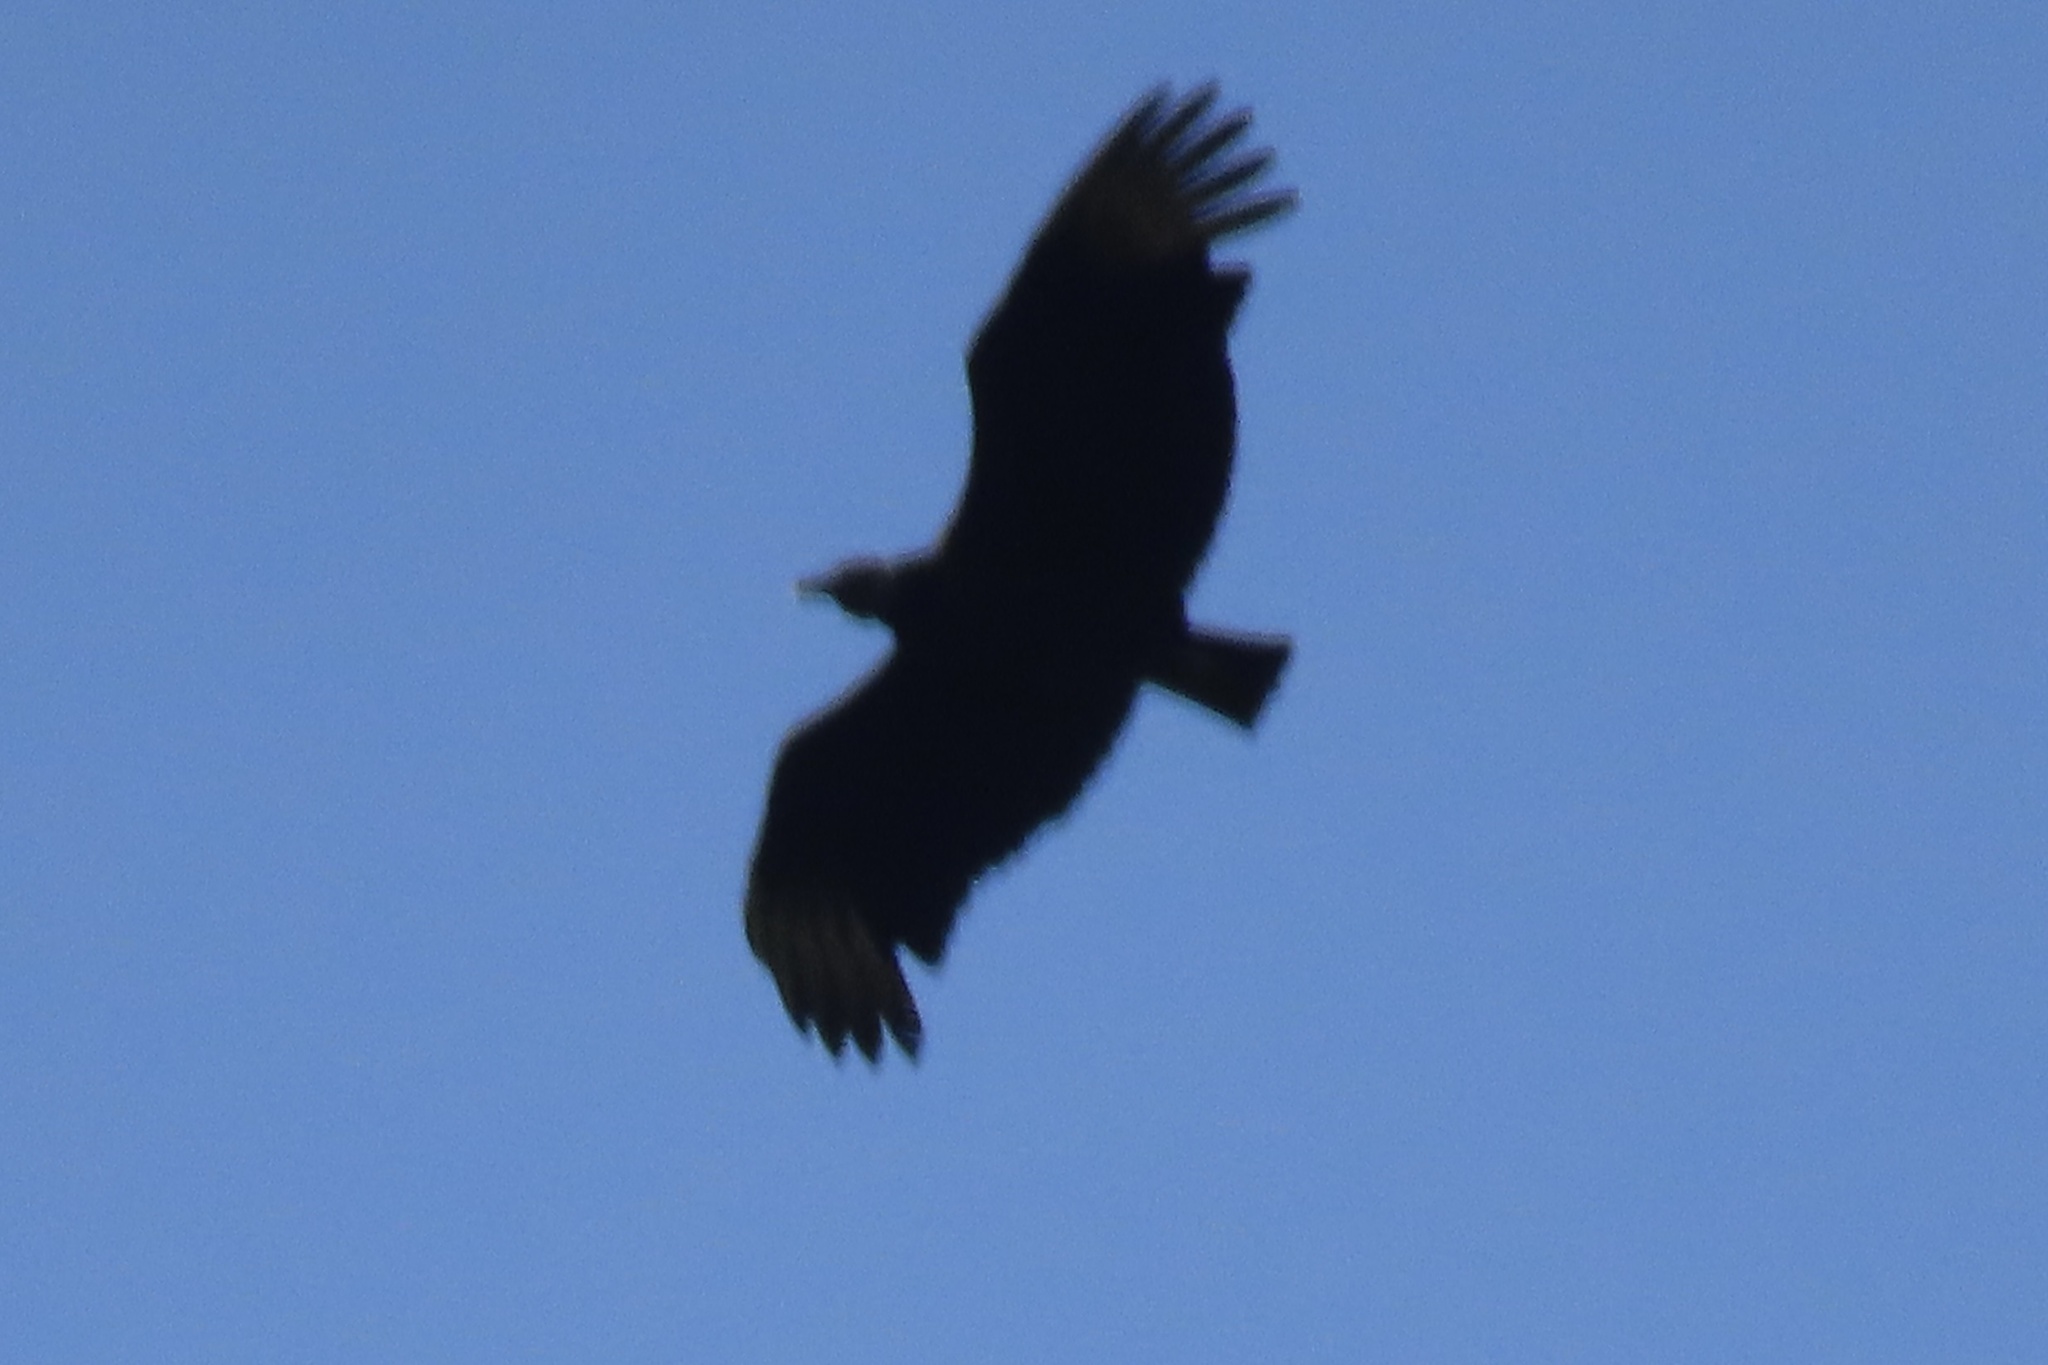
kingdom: Animalia
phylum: Chordata
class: Aves
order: Accipitriformes
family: Cathartidae
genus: Coragyps
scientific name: Coragyps atratus
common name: Black vulture
